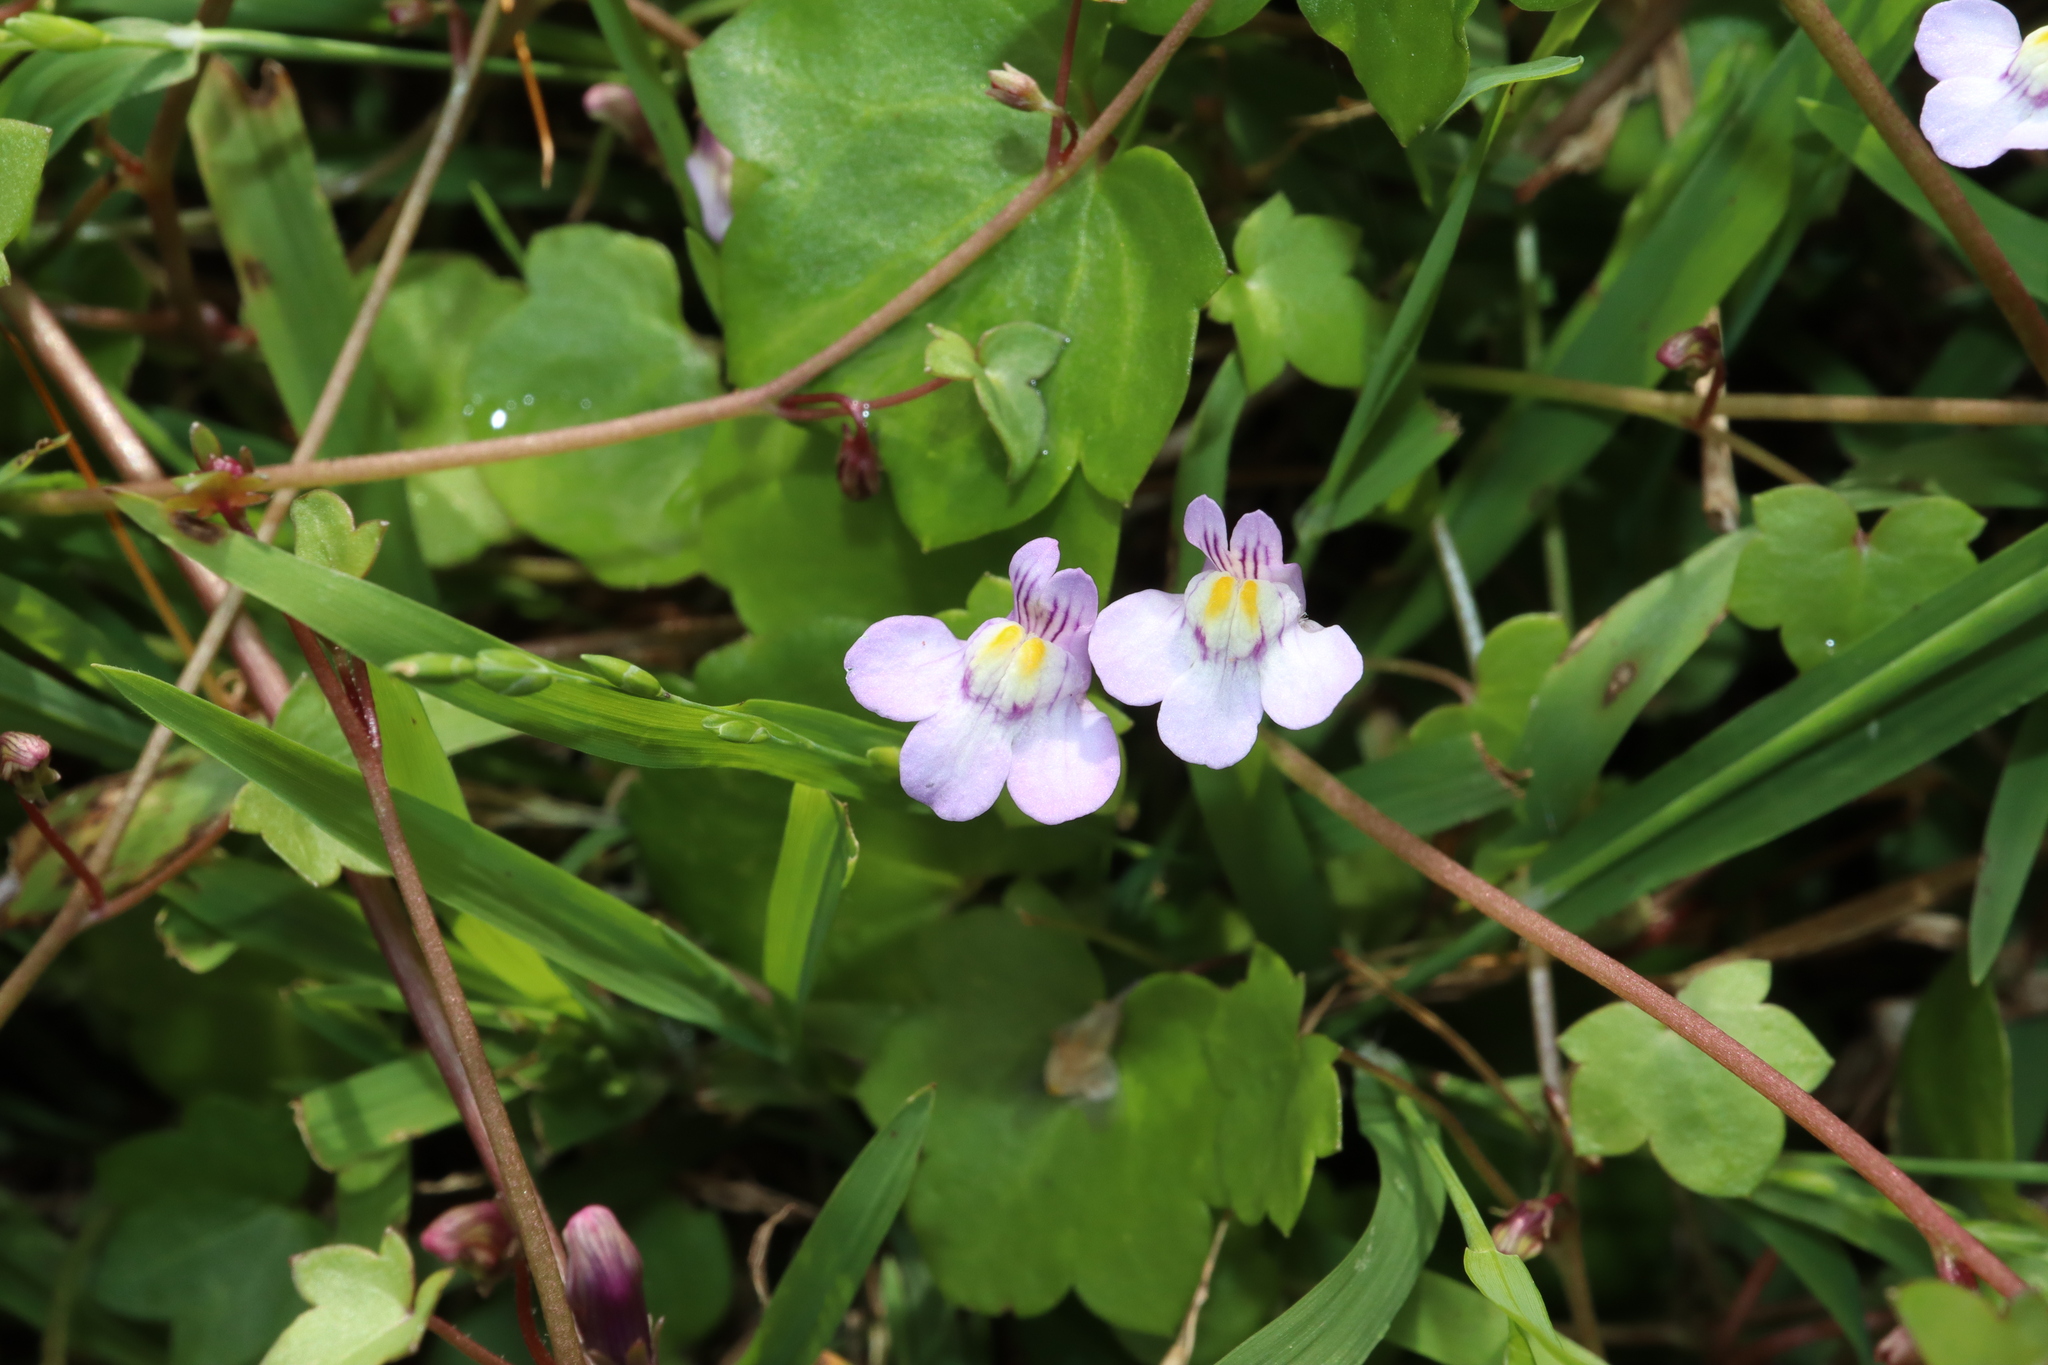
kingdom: Plantae
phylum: Tracheophyta
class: Magnoliopsida
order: Lamiales
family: Plantaginaceae
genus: Cymbalaria
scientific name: Cymbalaria muralis
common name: Ivy-leaved toadflax
